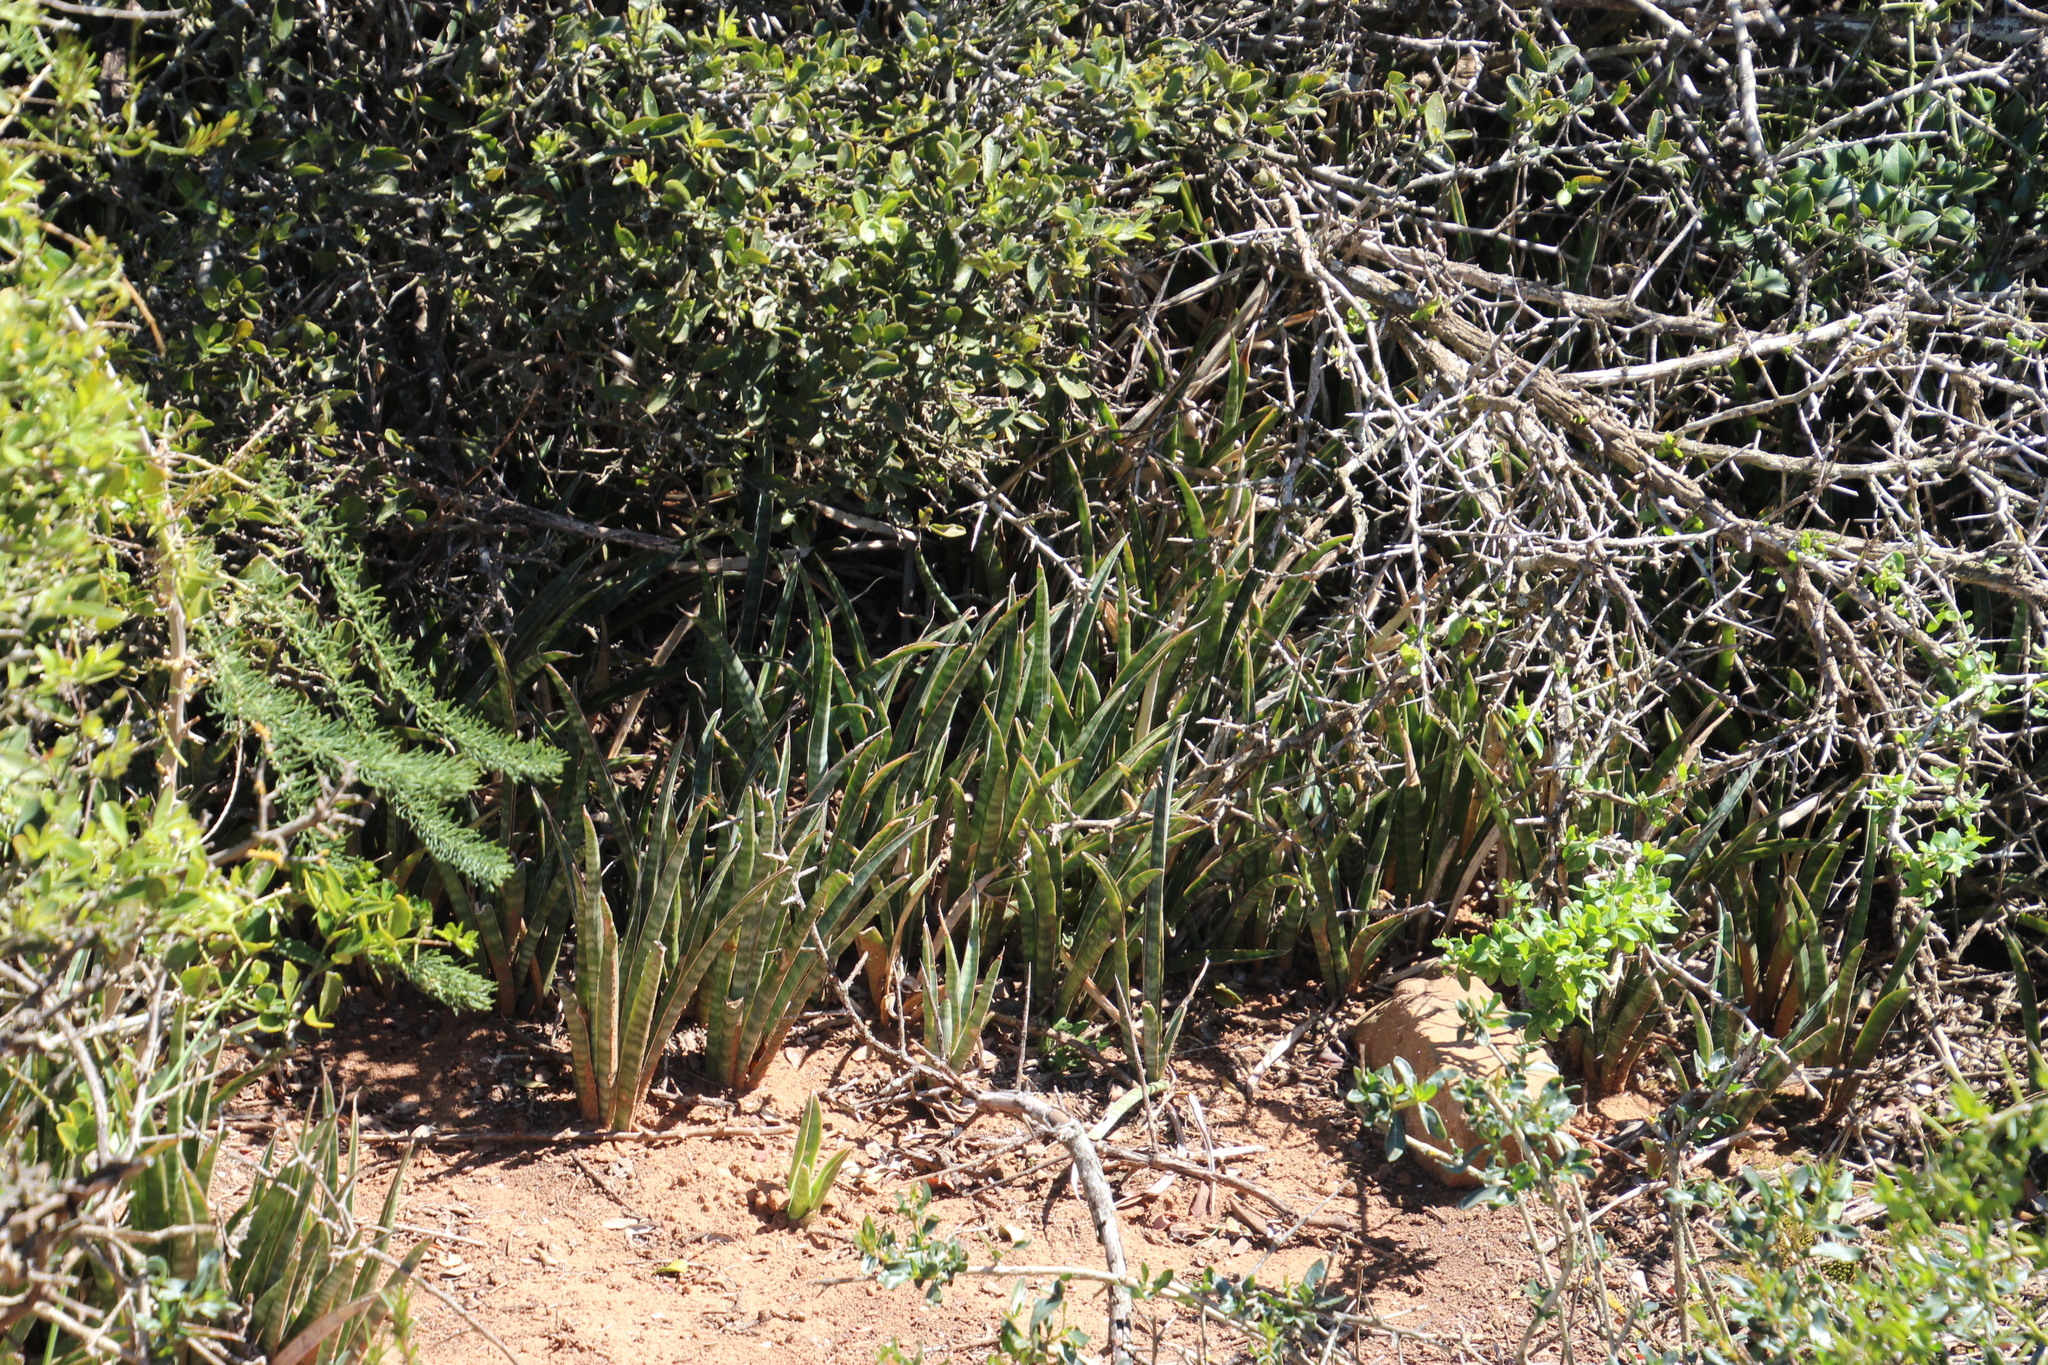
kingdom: Plantae
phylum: Tracheophyta
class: Liliopsida
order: Asparagales
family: Asparagaceae
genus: Dracaena
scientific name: Dracaena hyacinthoides
